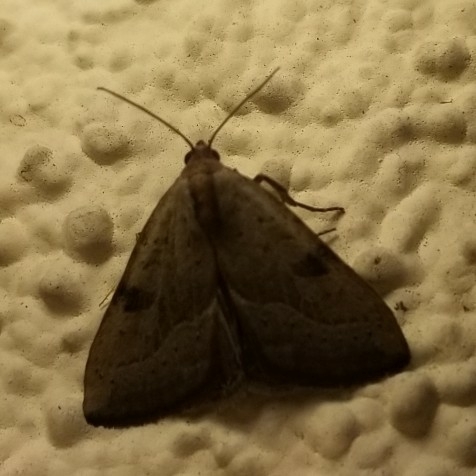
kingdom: Animalia
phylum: Arthropoda
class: Insecta
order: Lepidoptera
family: Noctuidae
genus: Galgula
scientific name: Galgula partita
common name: Wedgeling
